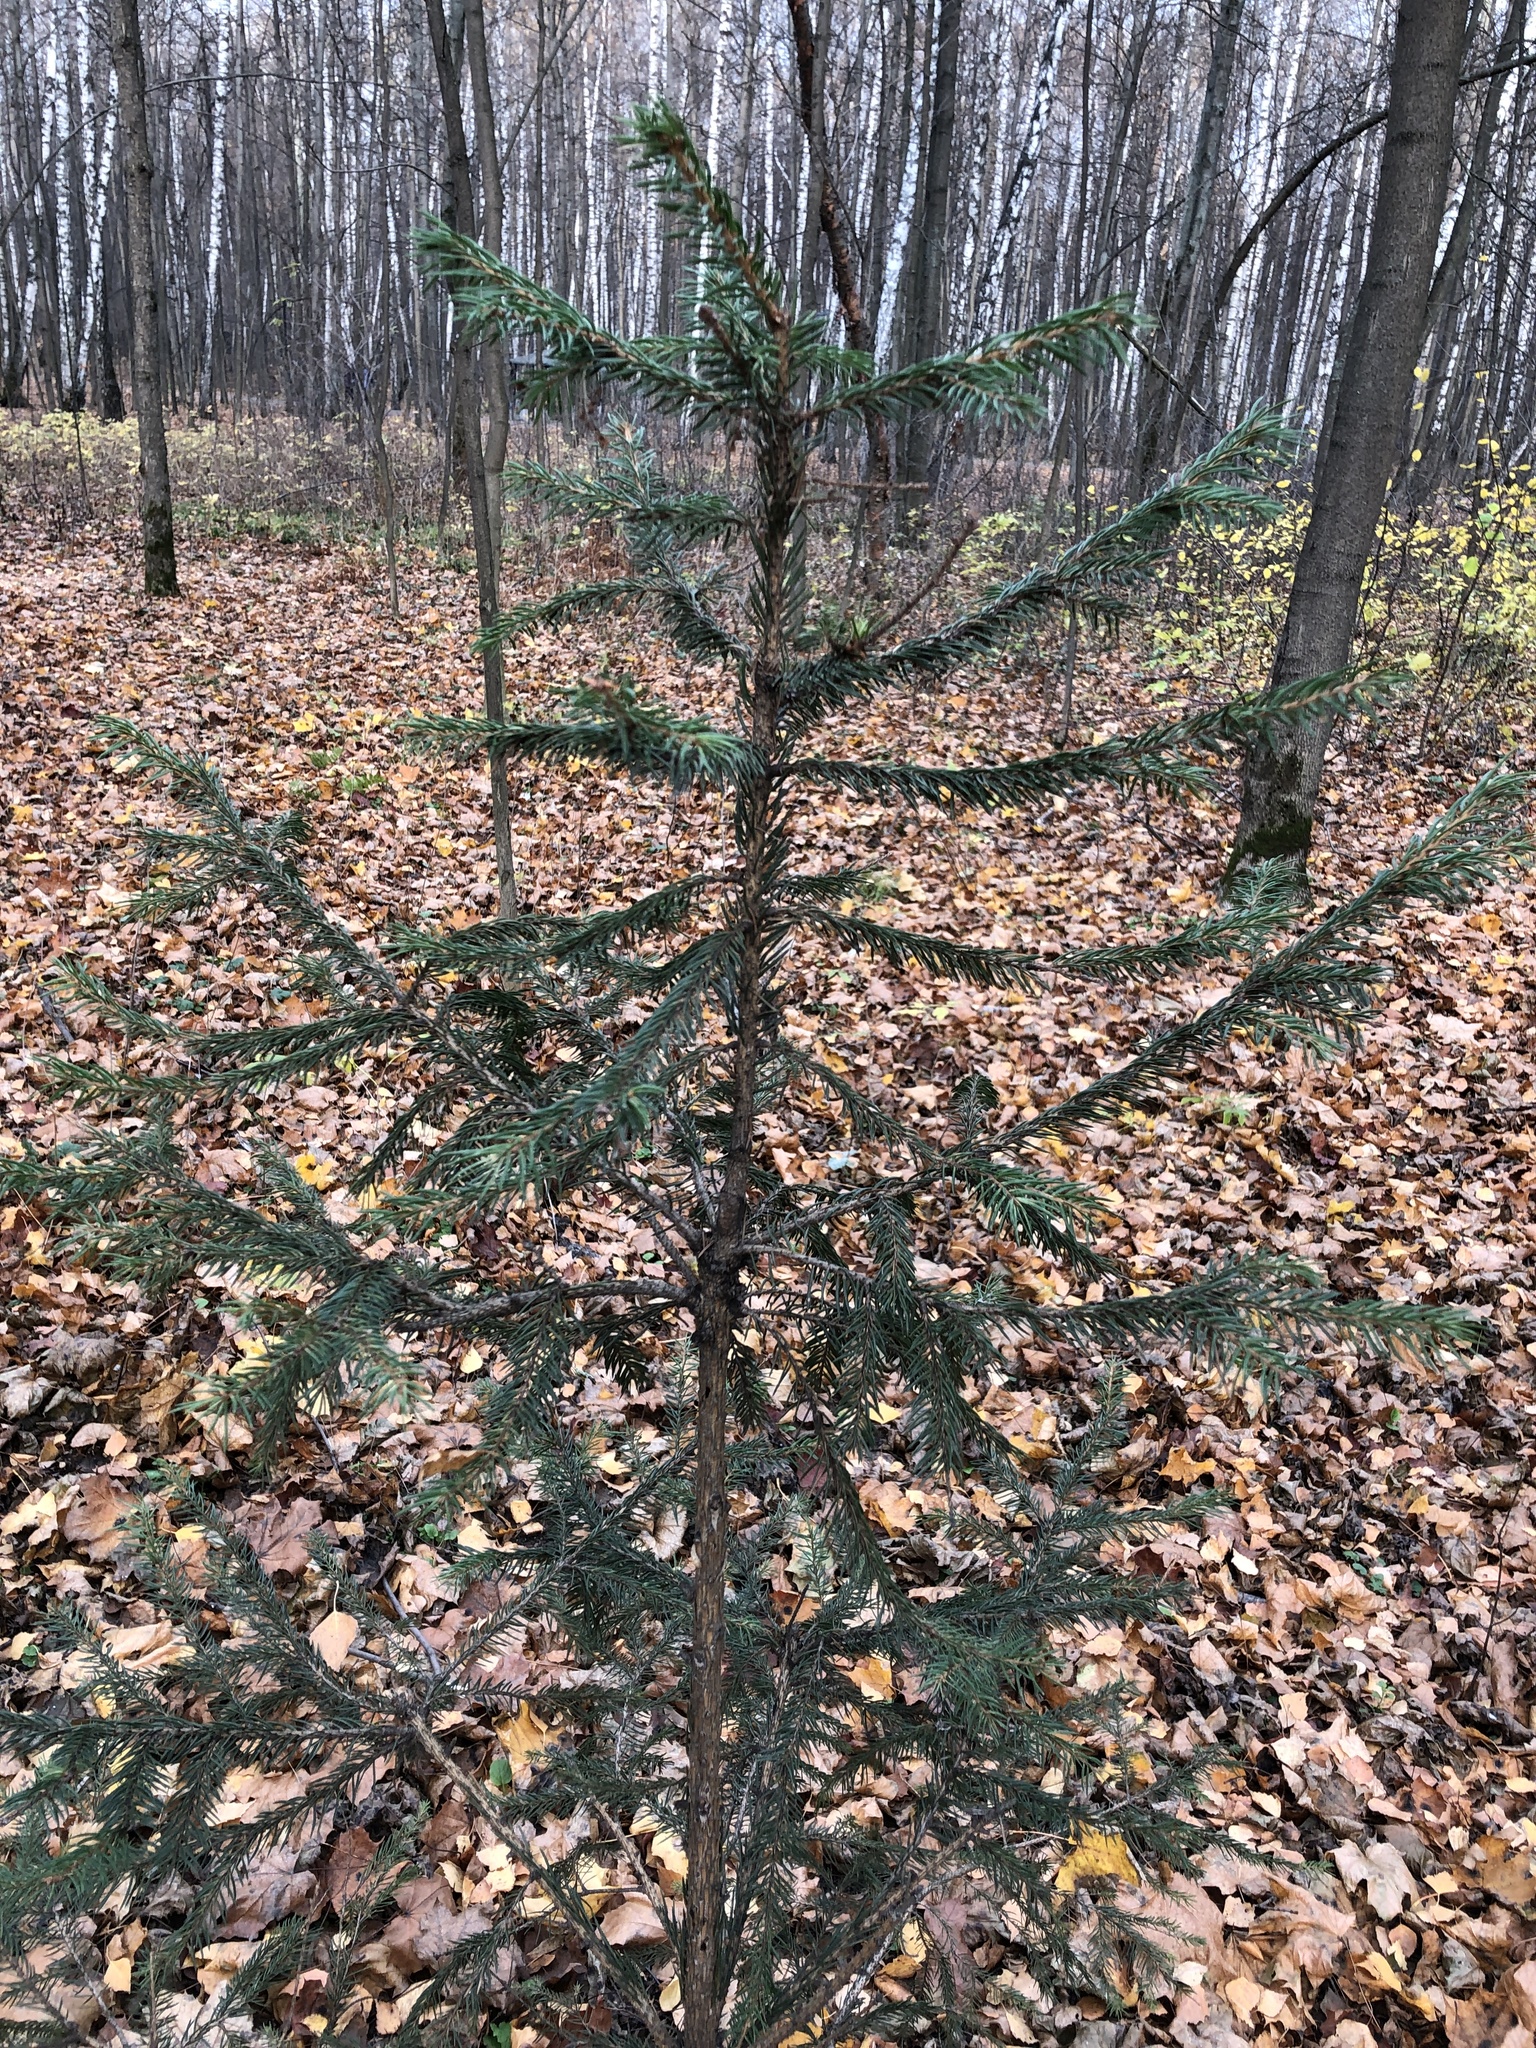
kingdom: Plantae
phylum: Tracheophyta
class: Pinopsida
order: Pinales
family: Pinaceae
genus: Picea
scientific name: Picea abies
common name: Norway spruce
